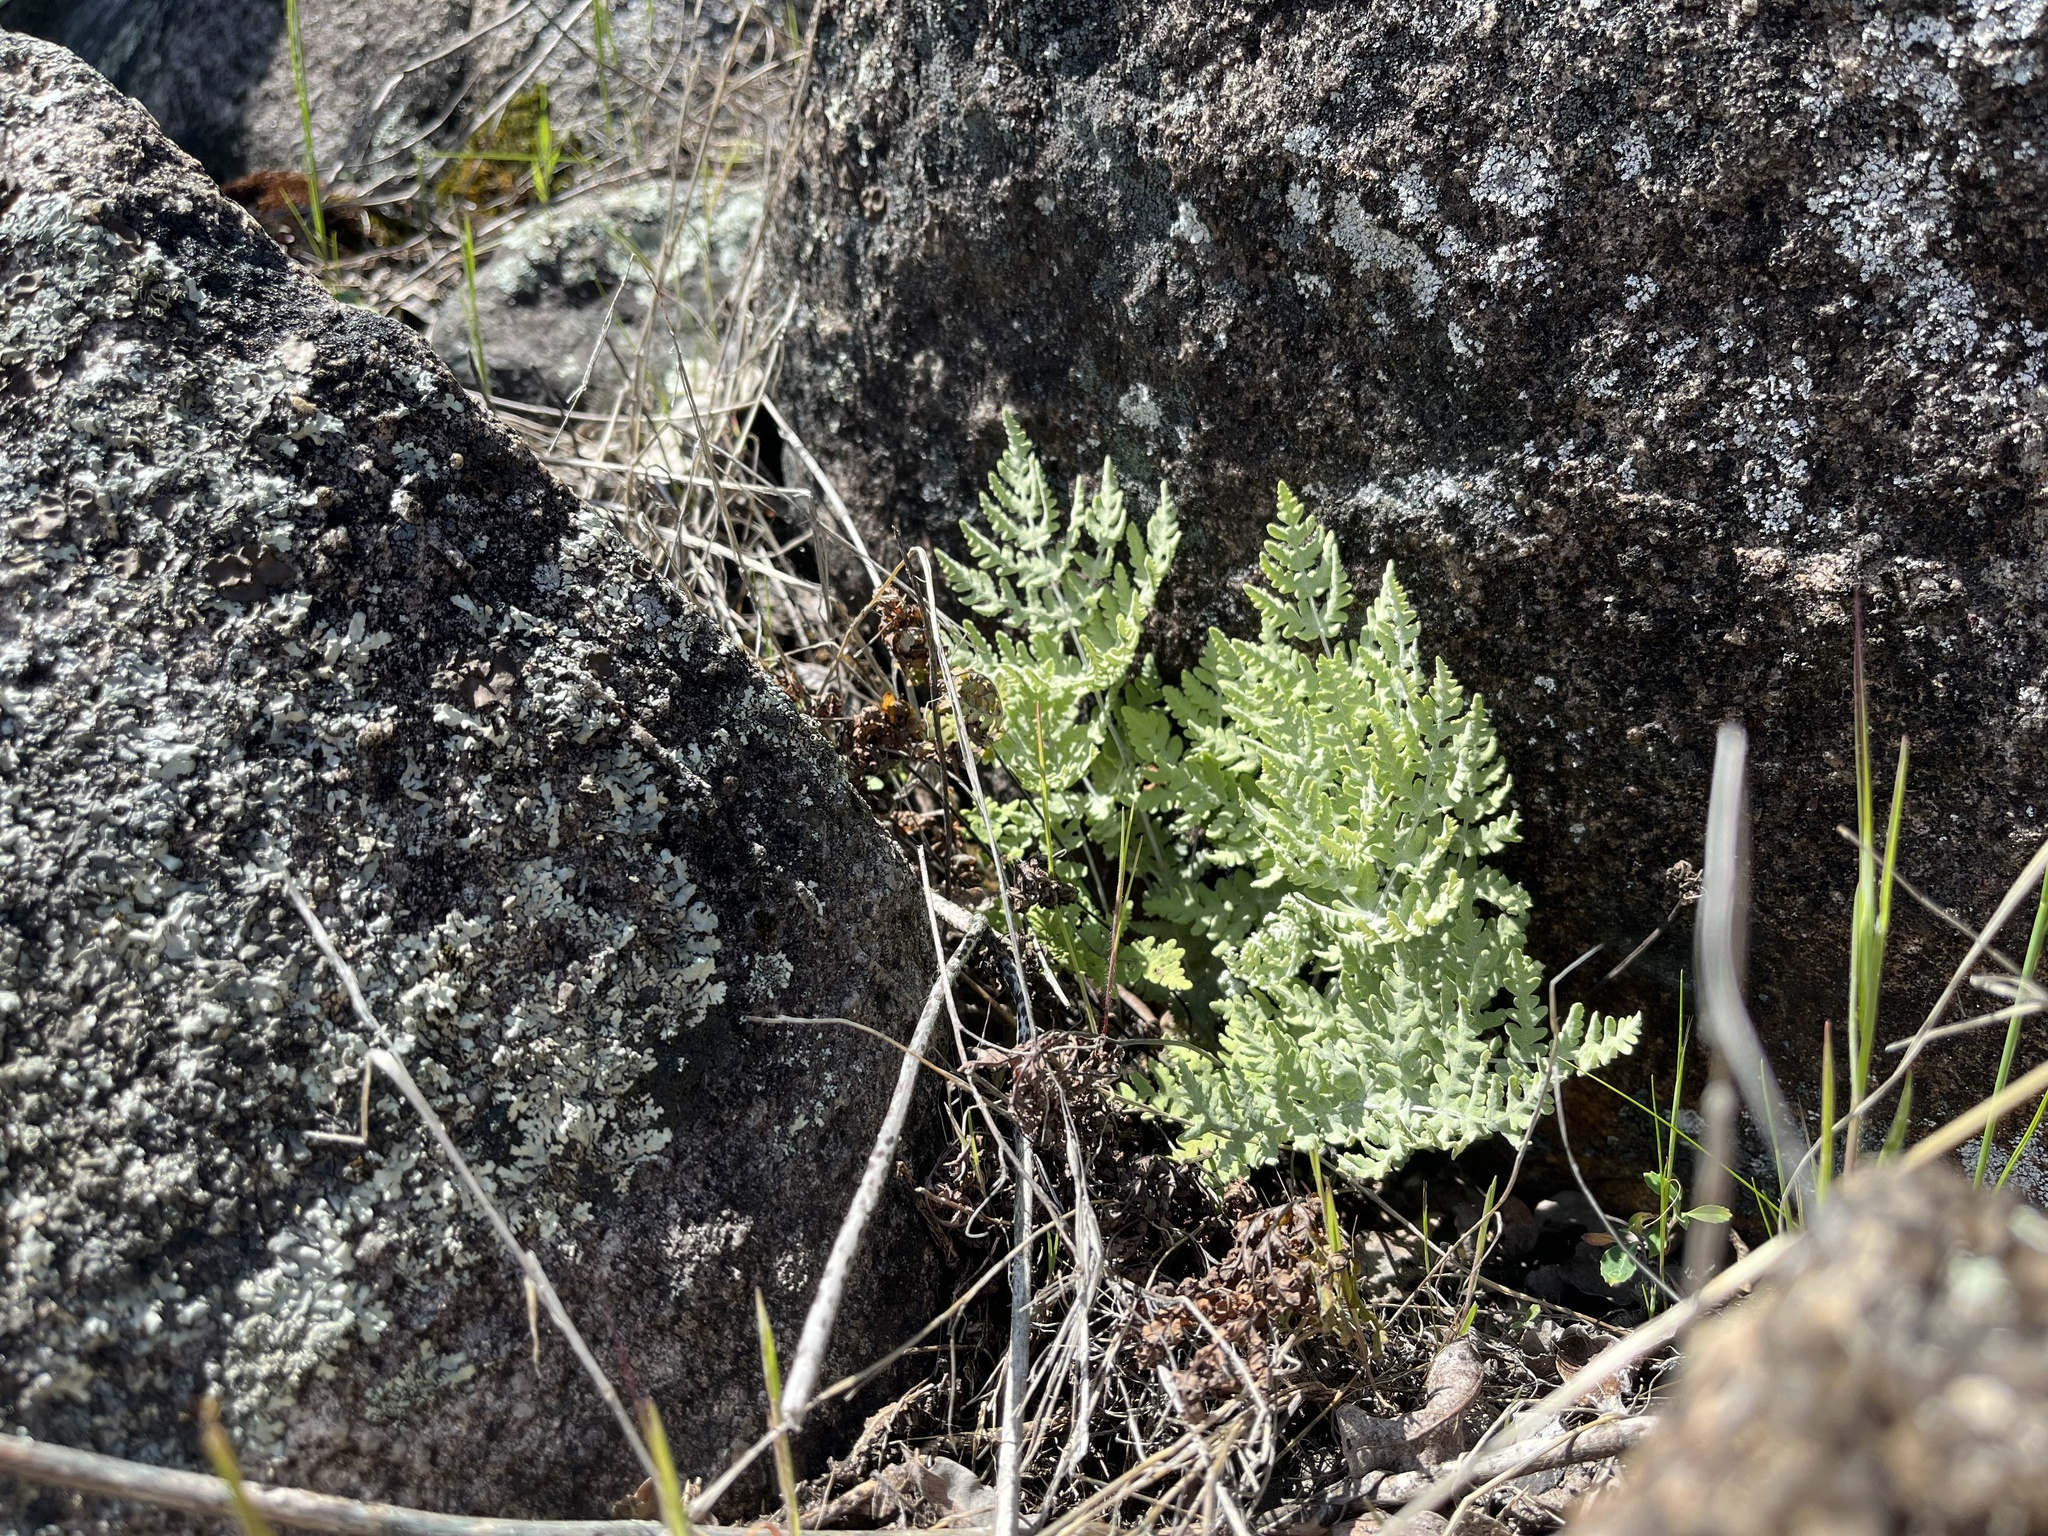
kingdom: Plantae
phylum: Tracheophyta
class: Polypodiopsida
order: Polypodiales
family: Pteridaceae
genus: Pentagramma
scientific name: Pentagramma pallida
